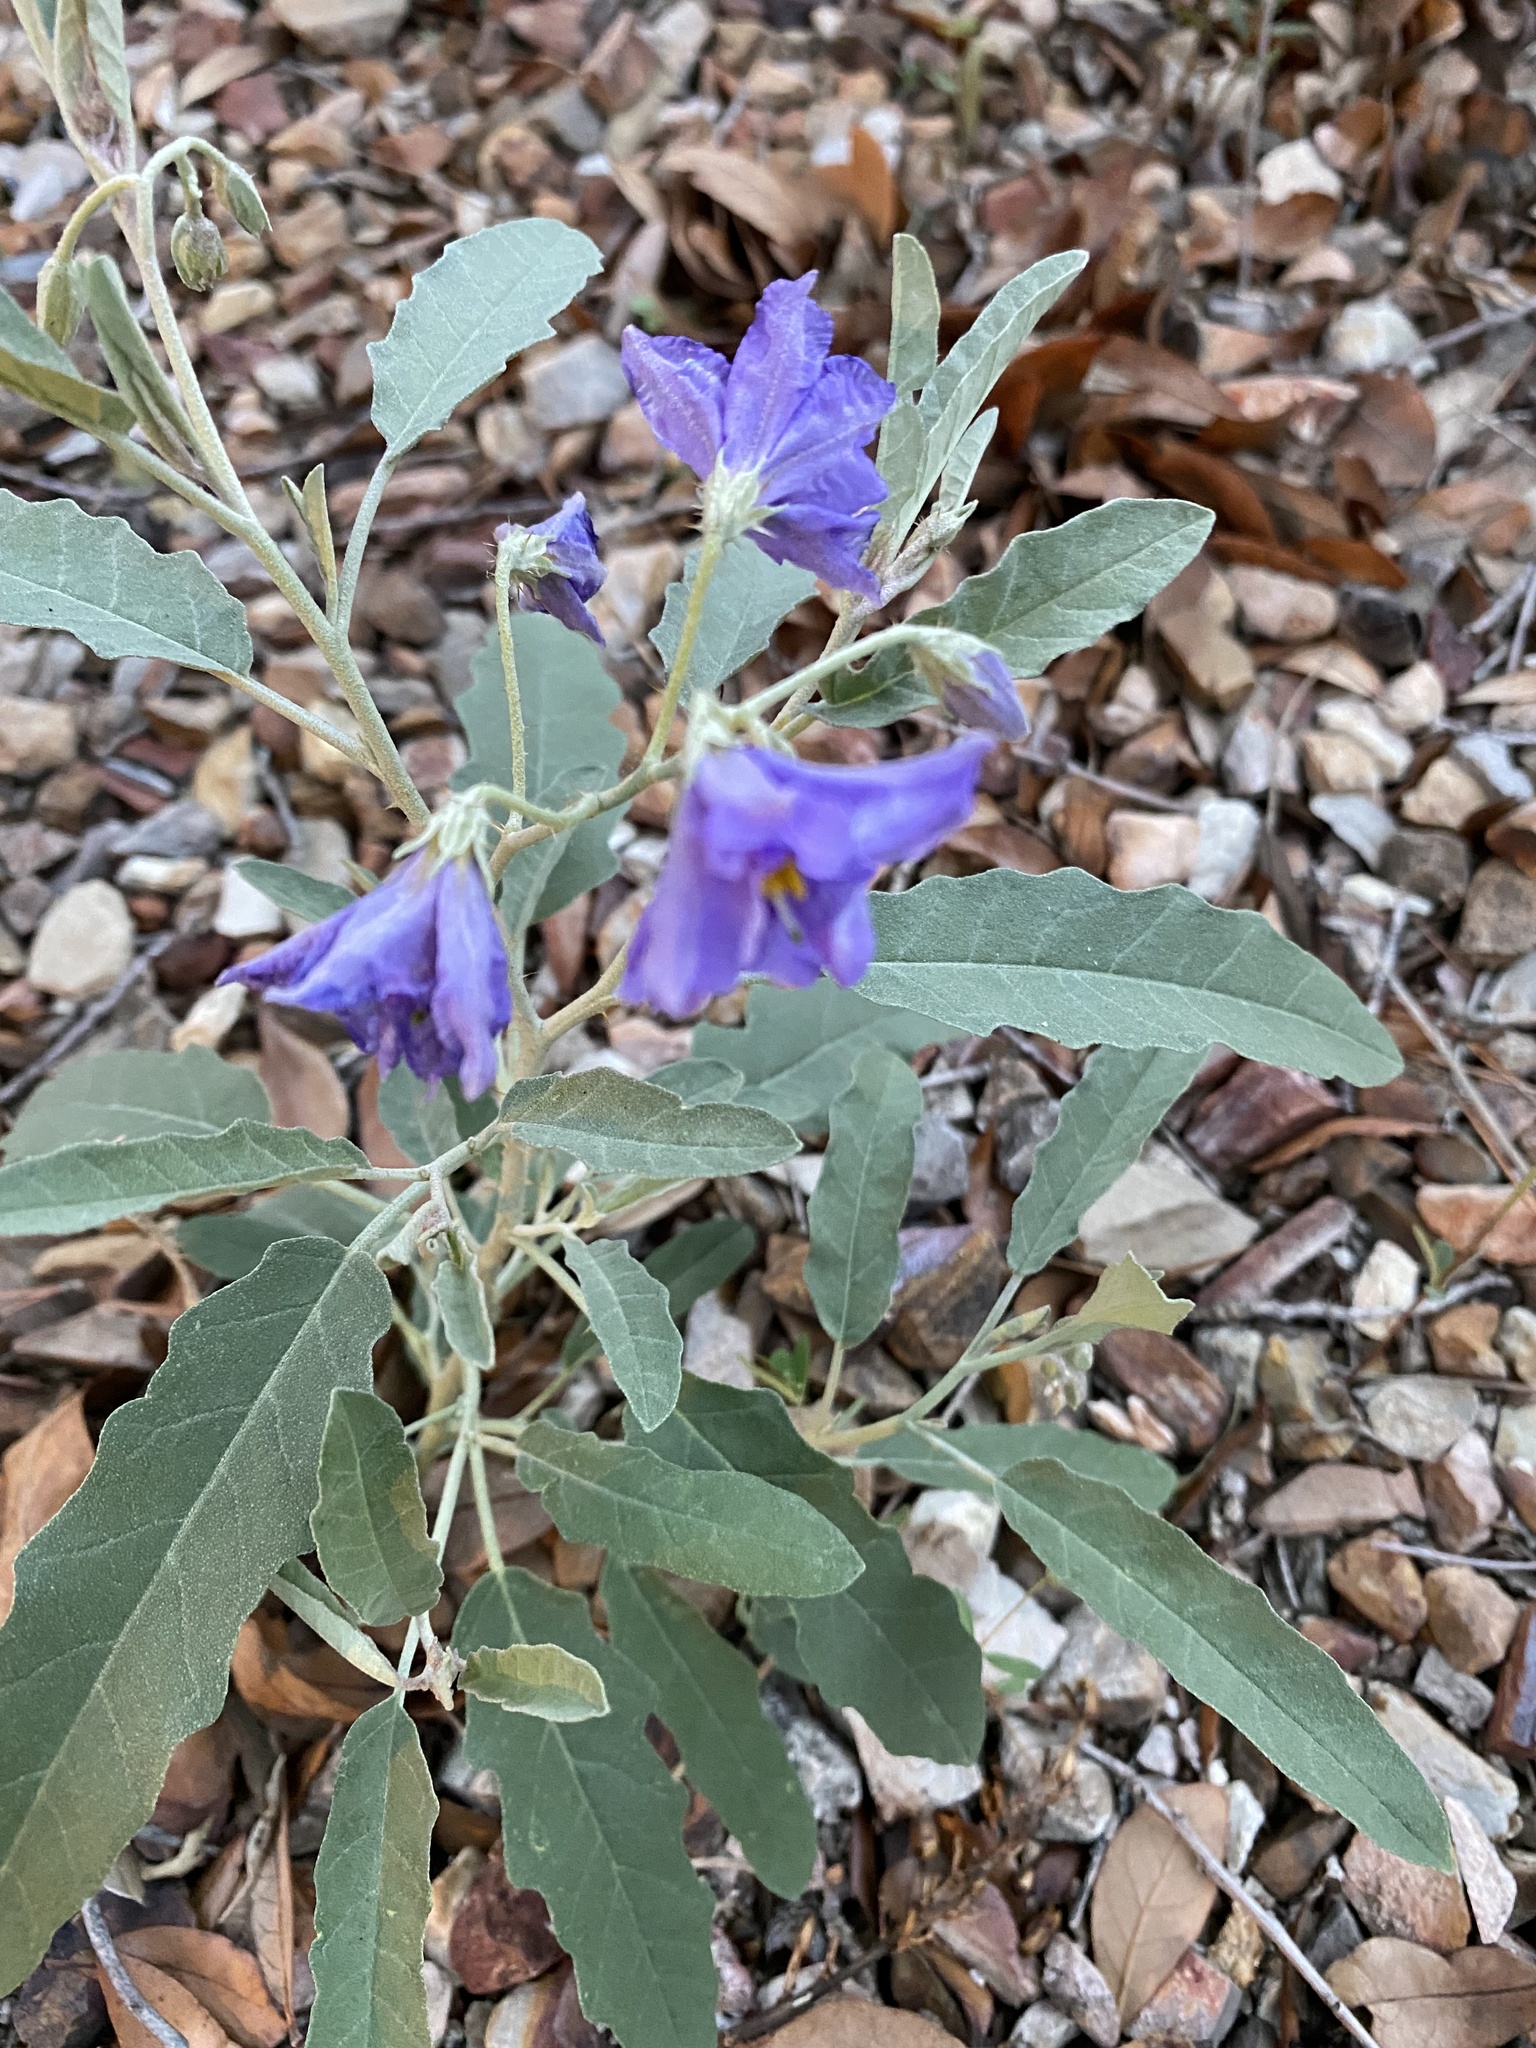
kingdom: Plantae
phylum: Tracheophyta
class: Magnoliopsida
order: Solanales
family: Solanaceae
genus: Solanum
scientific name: Solanum elaeagnifolium
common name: Silverleaf nightshade
